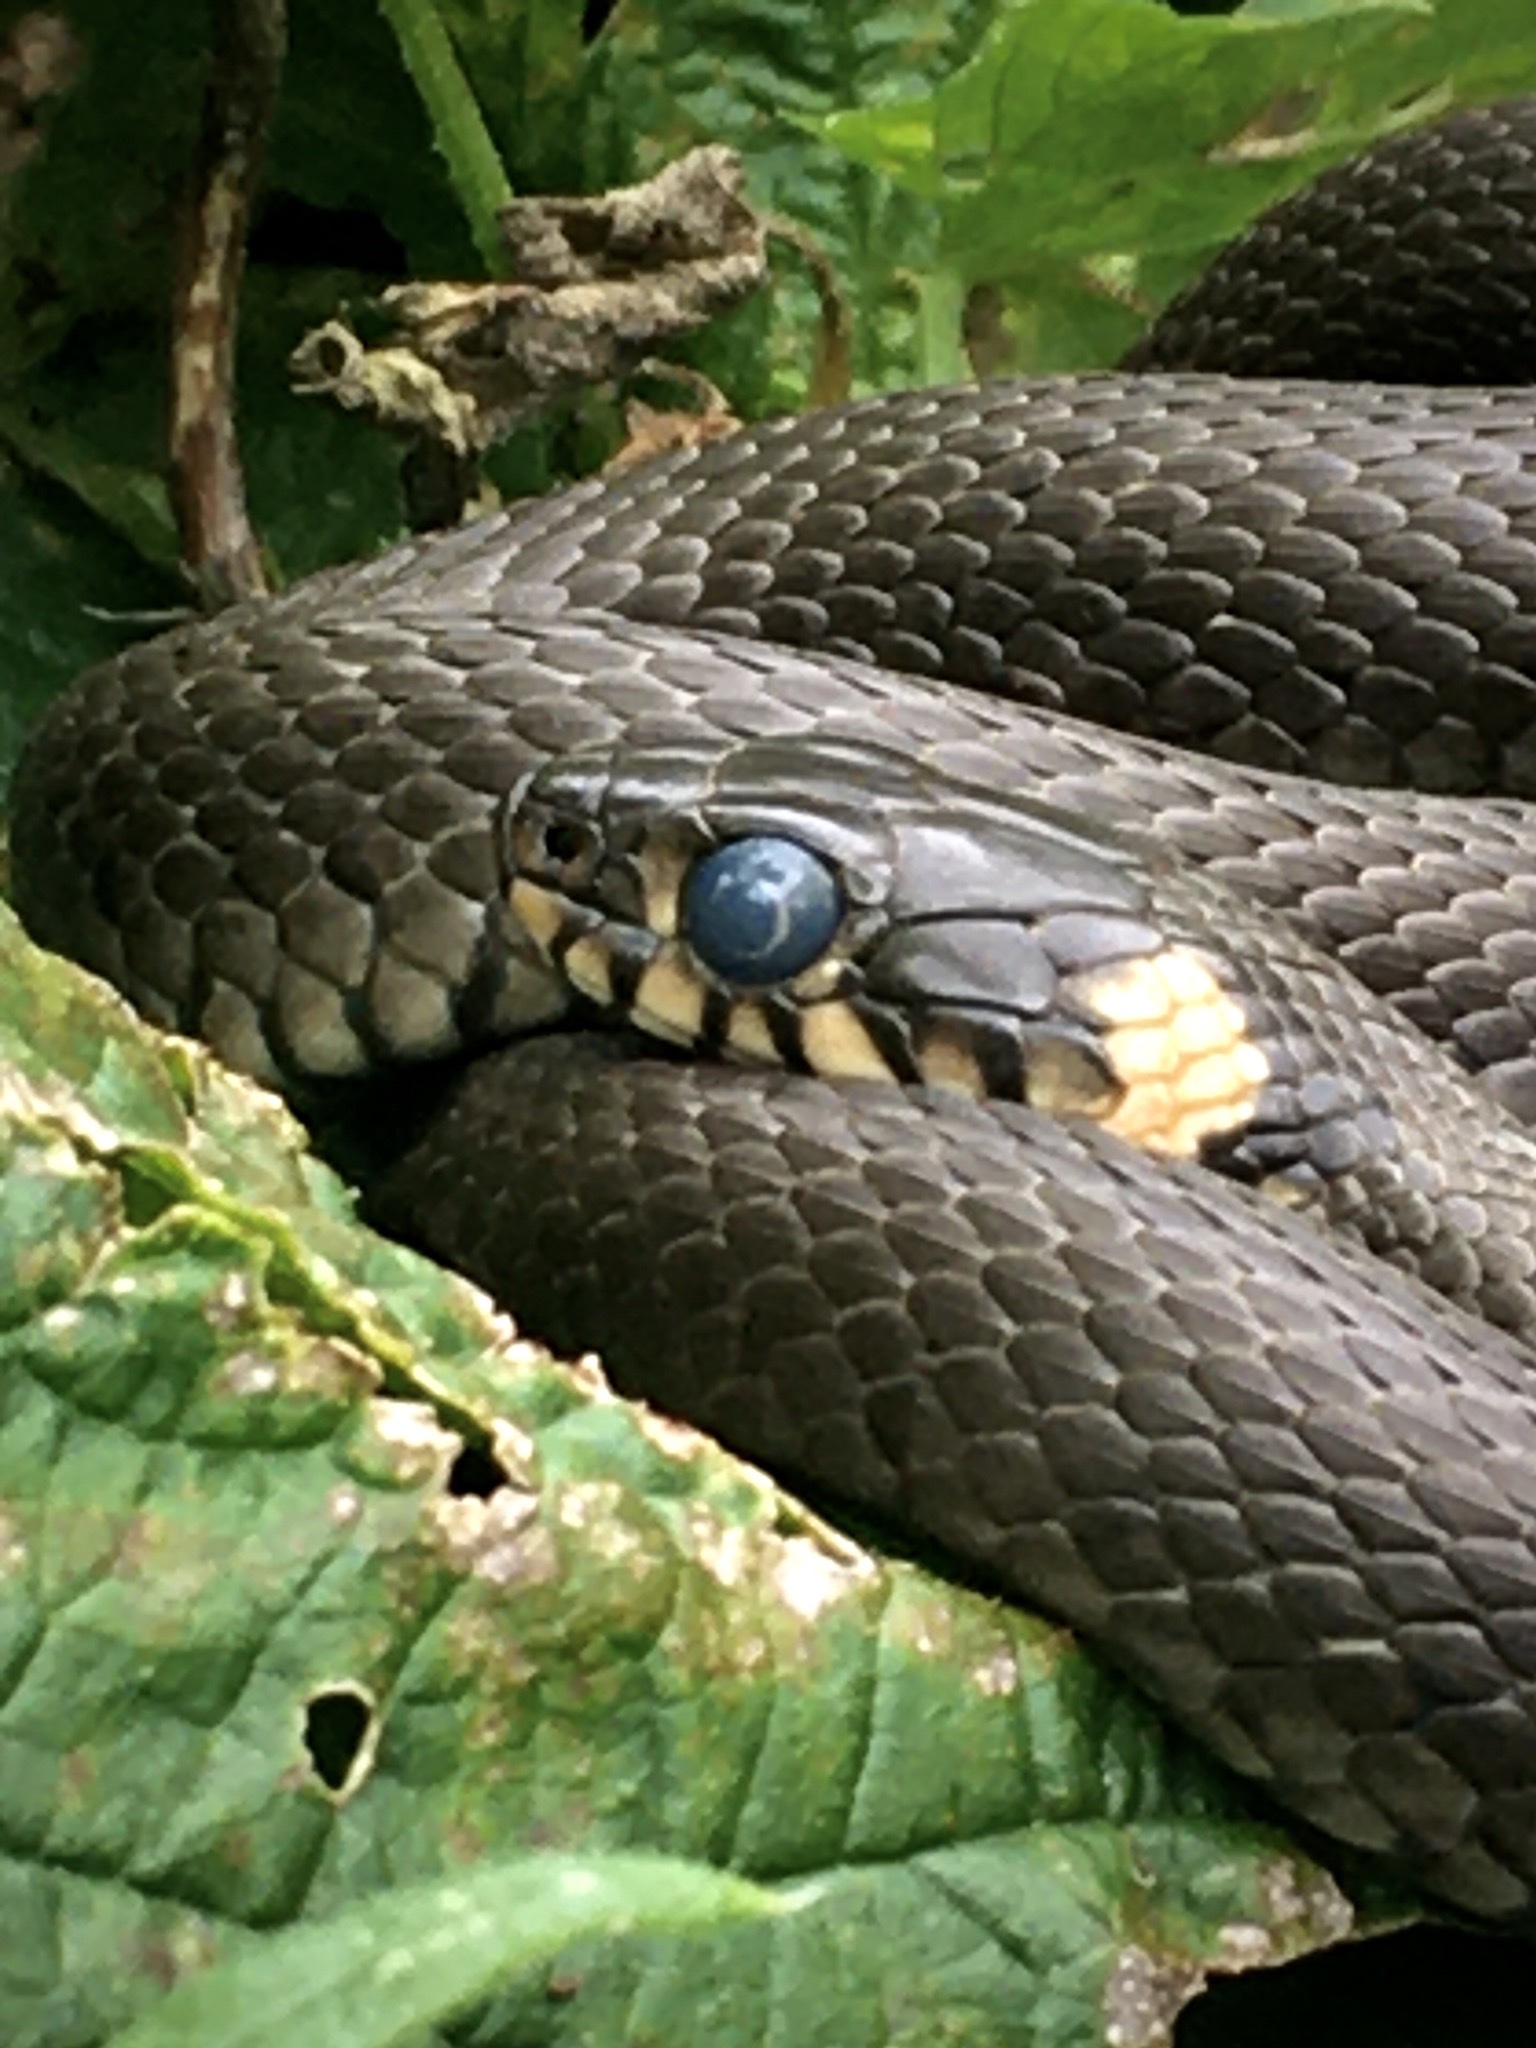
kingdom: Animalia
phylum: Chordata
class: Squamata
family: Colubridae
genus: Natrix
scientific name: Natrix natrix
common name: Grass snake
